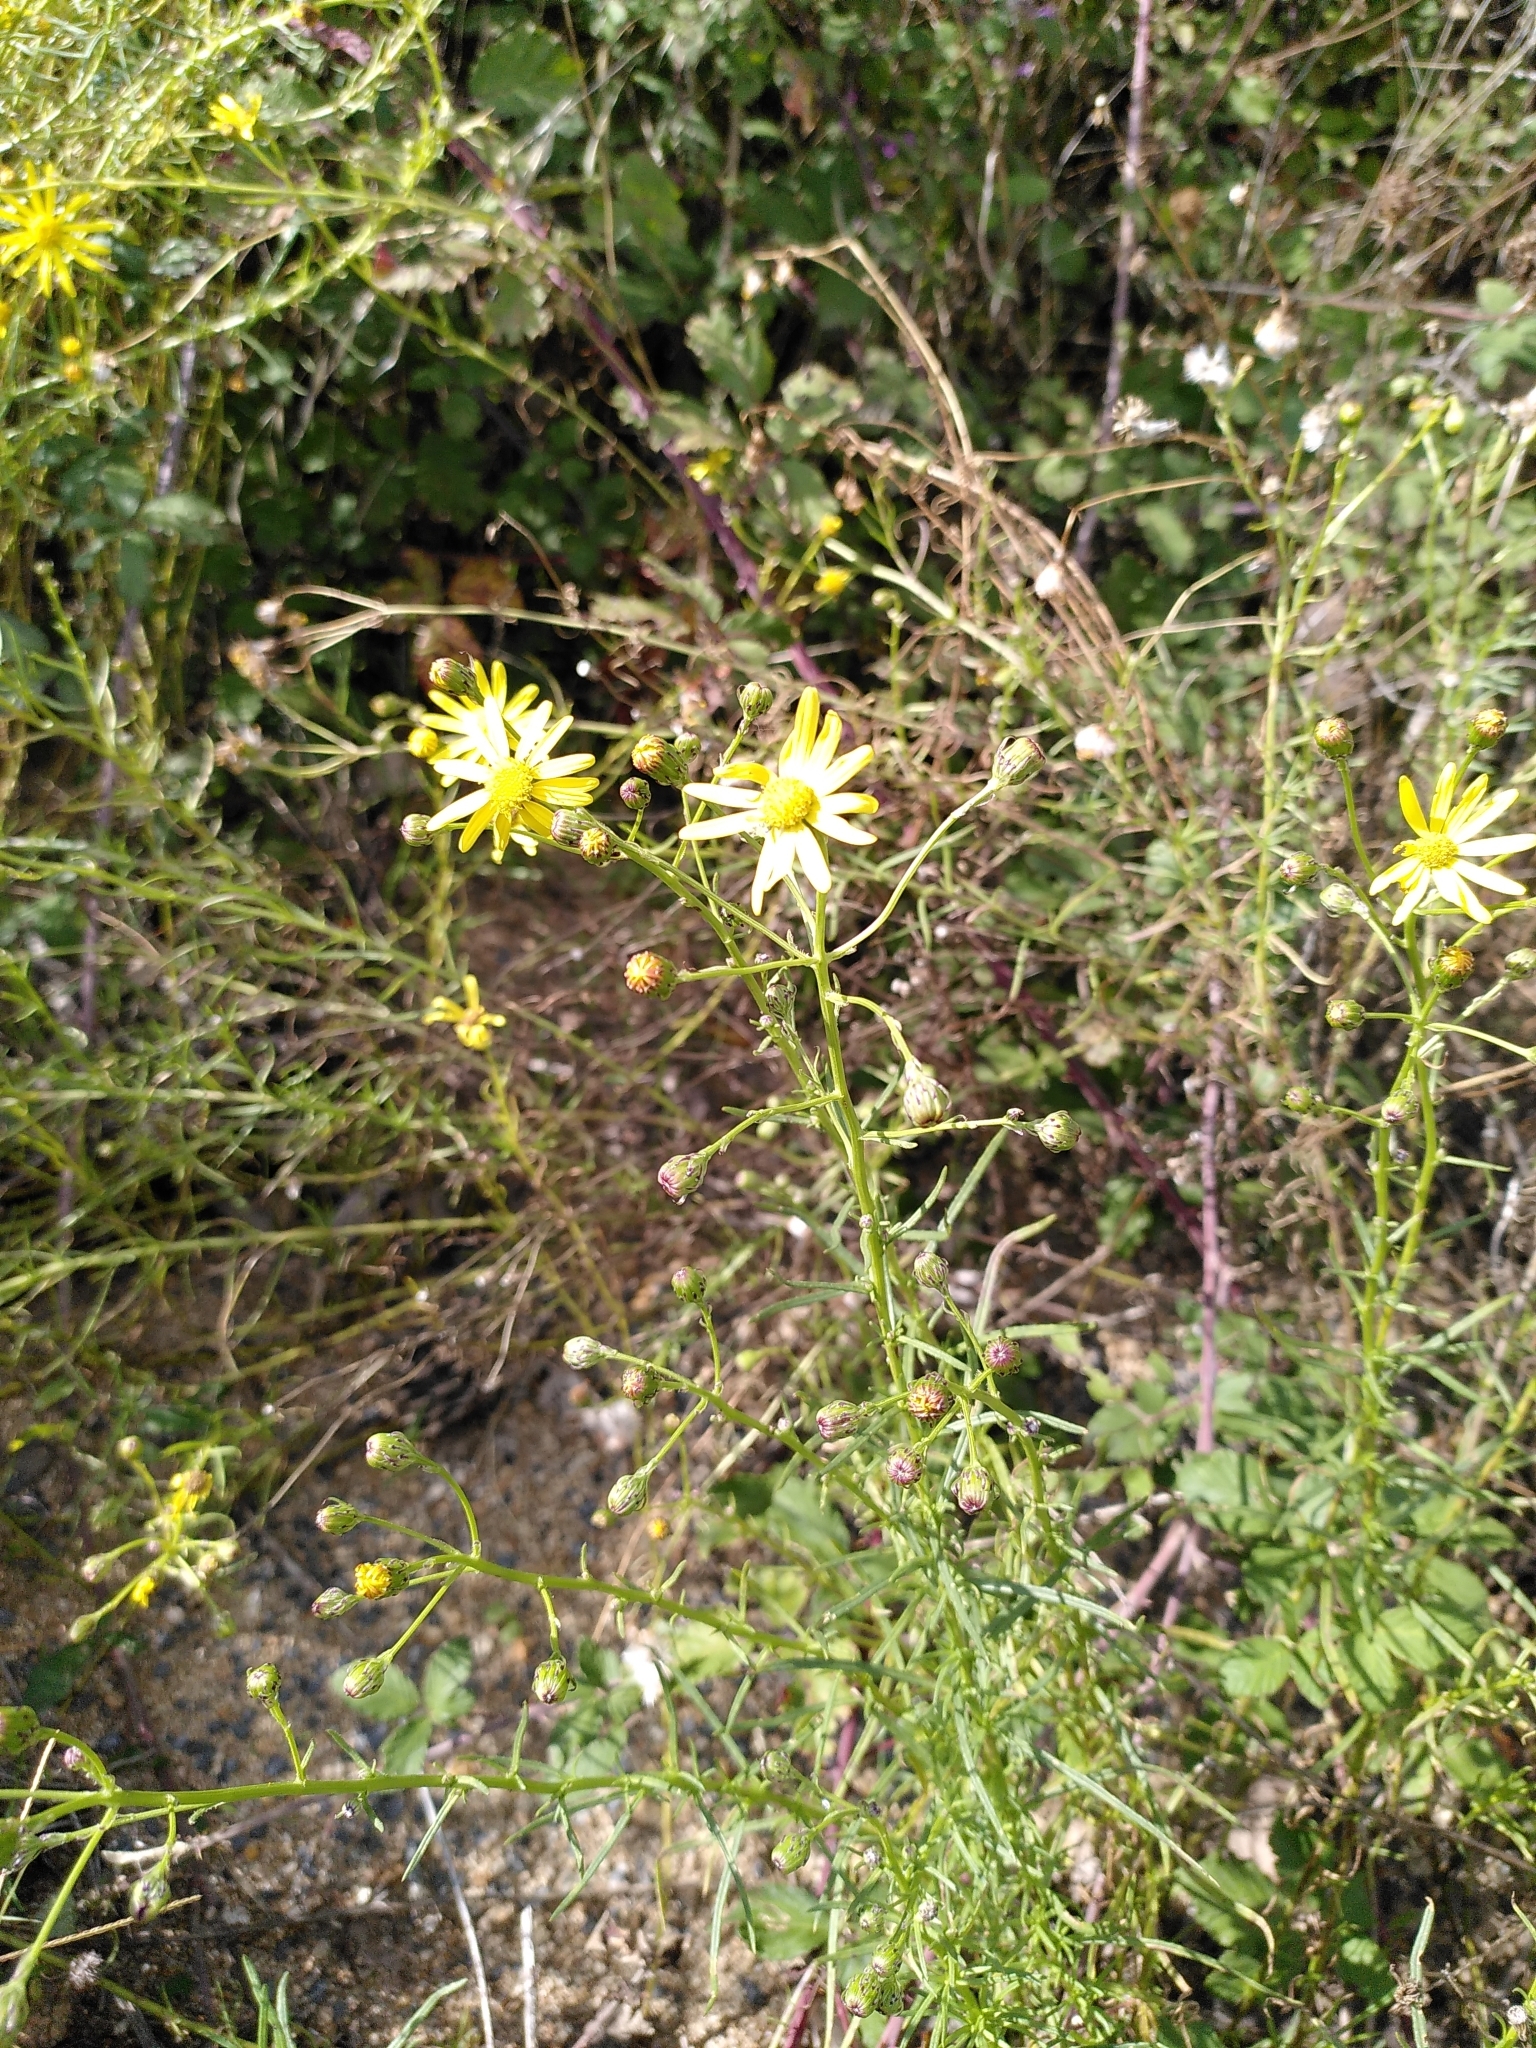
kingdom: Plantae
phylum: Tracheophyta
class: Magnoliopsida
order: Asterales
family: Asteraceae
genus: Senecio
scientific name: Senecio inaequidens
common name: Narrow-leaved ragwort
